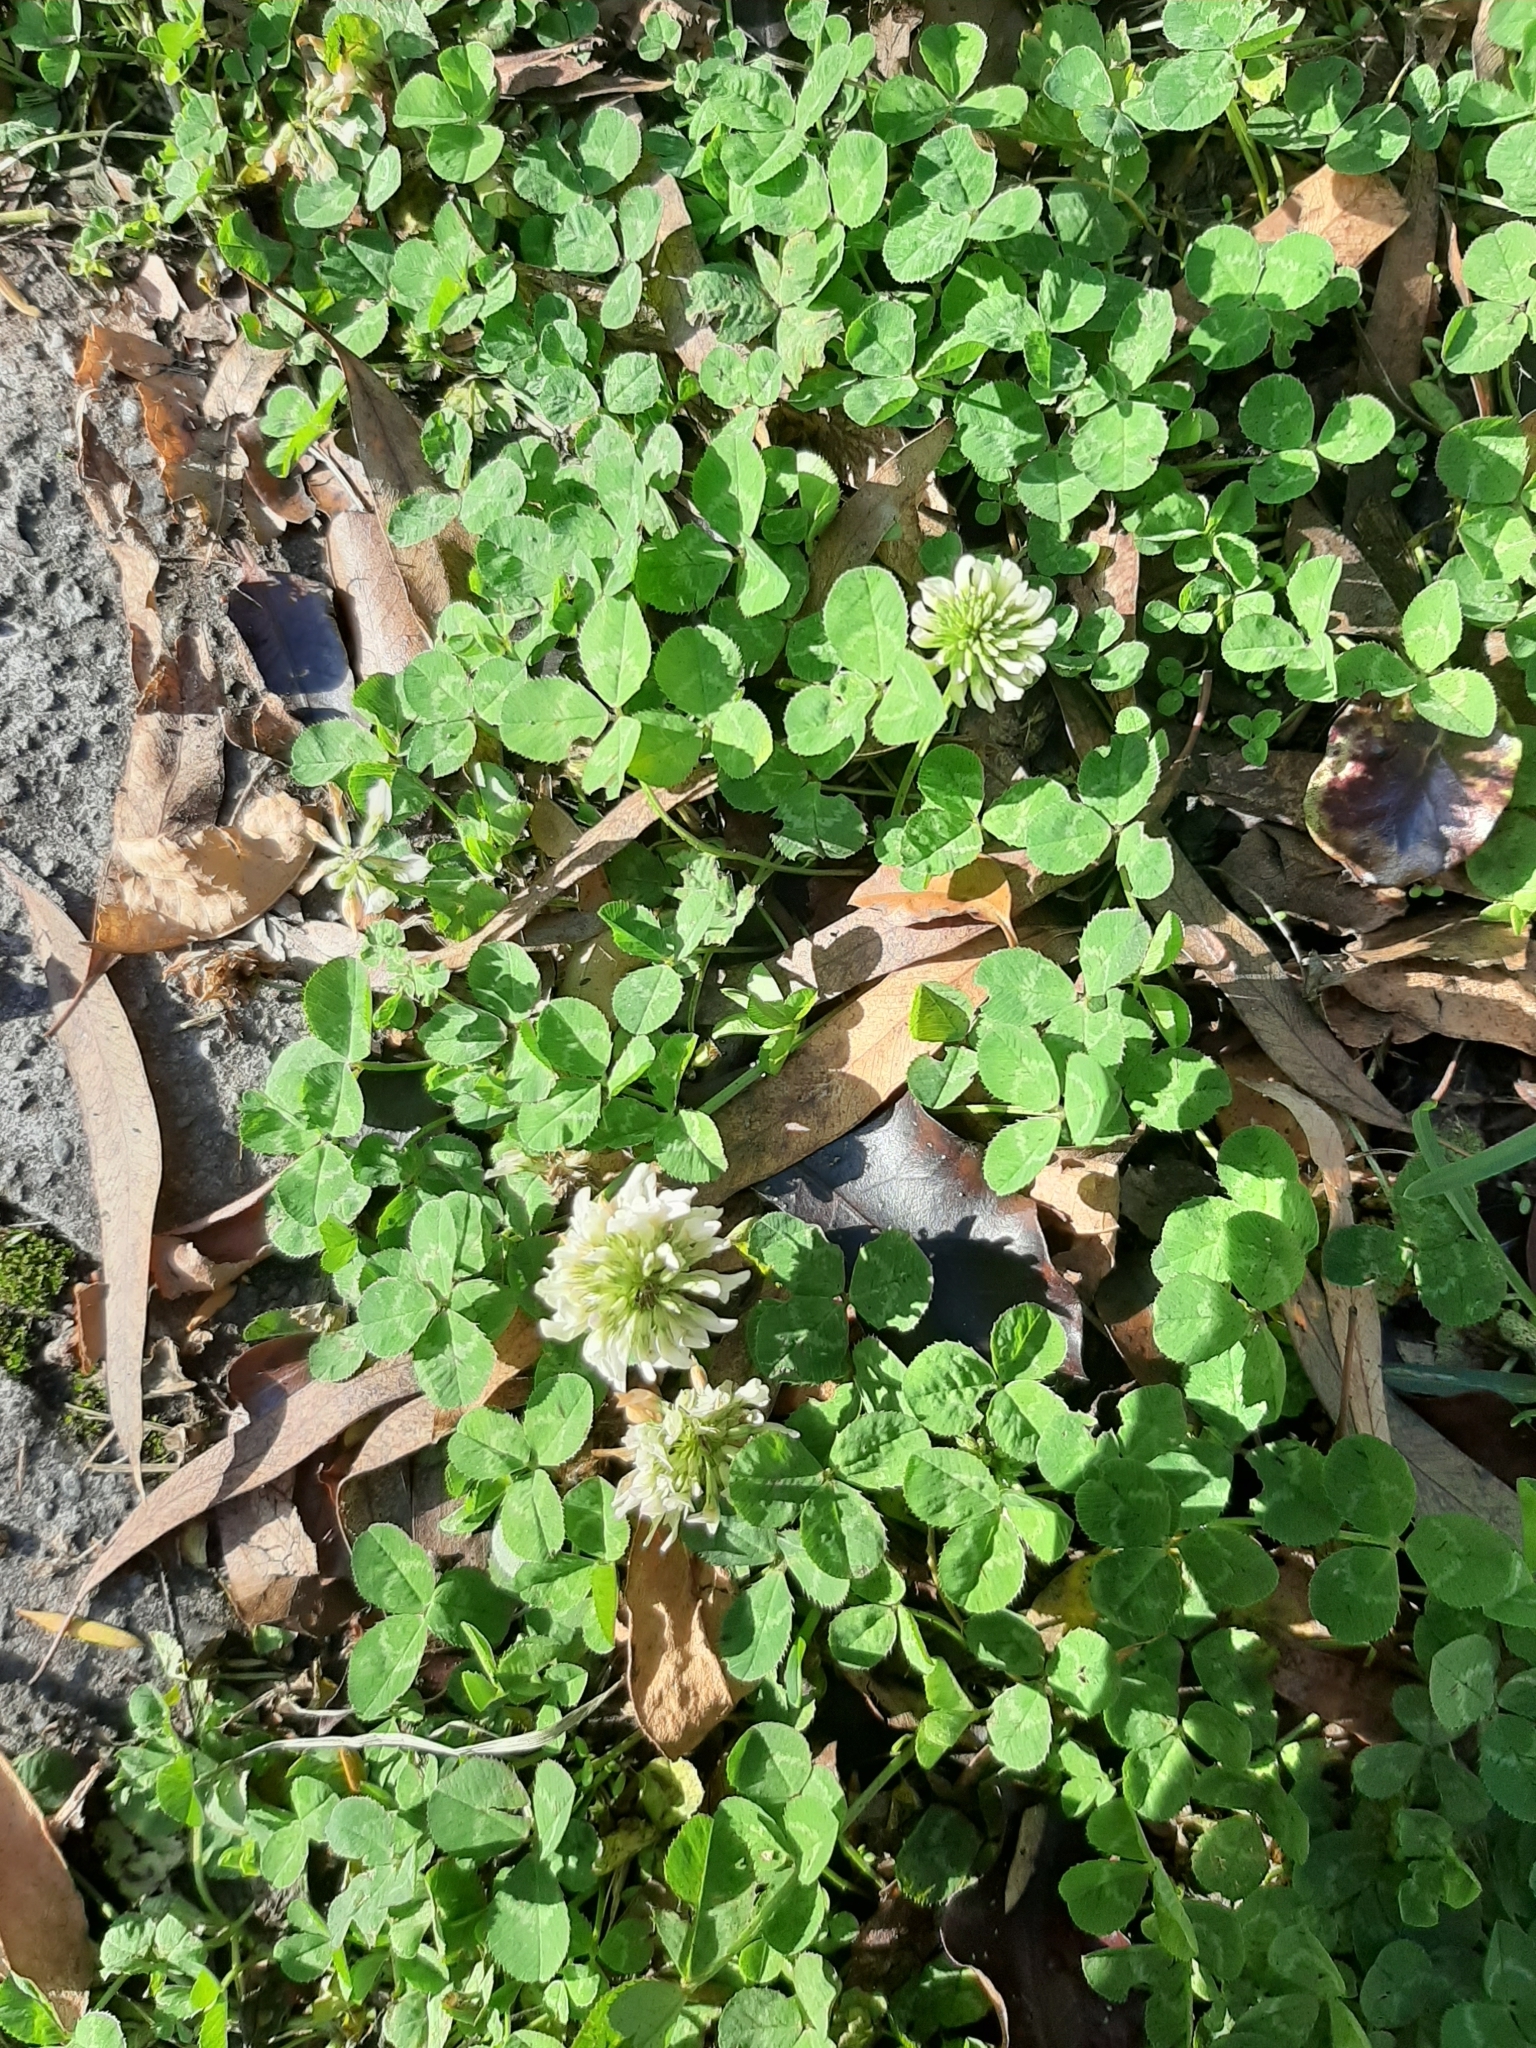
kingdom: Plantae
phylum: Tracheophyta
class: Magnoliopsida
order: Fabales
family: Fabaceae
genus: Trifolium
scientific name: Trifolium repens
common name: White clover
